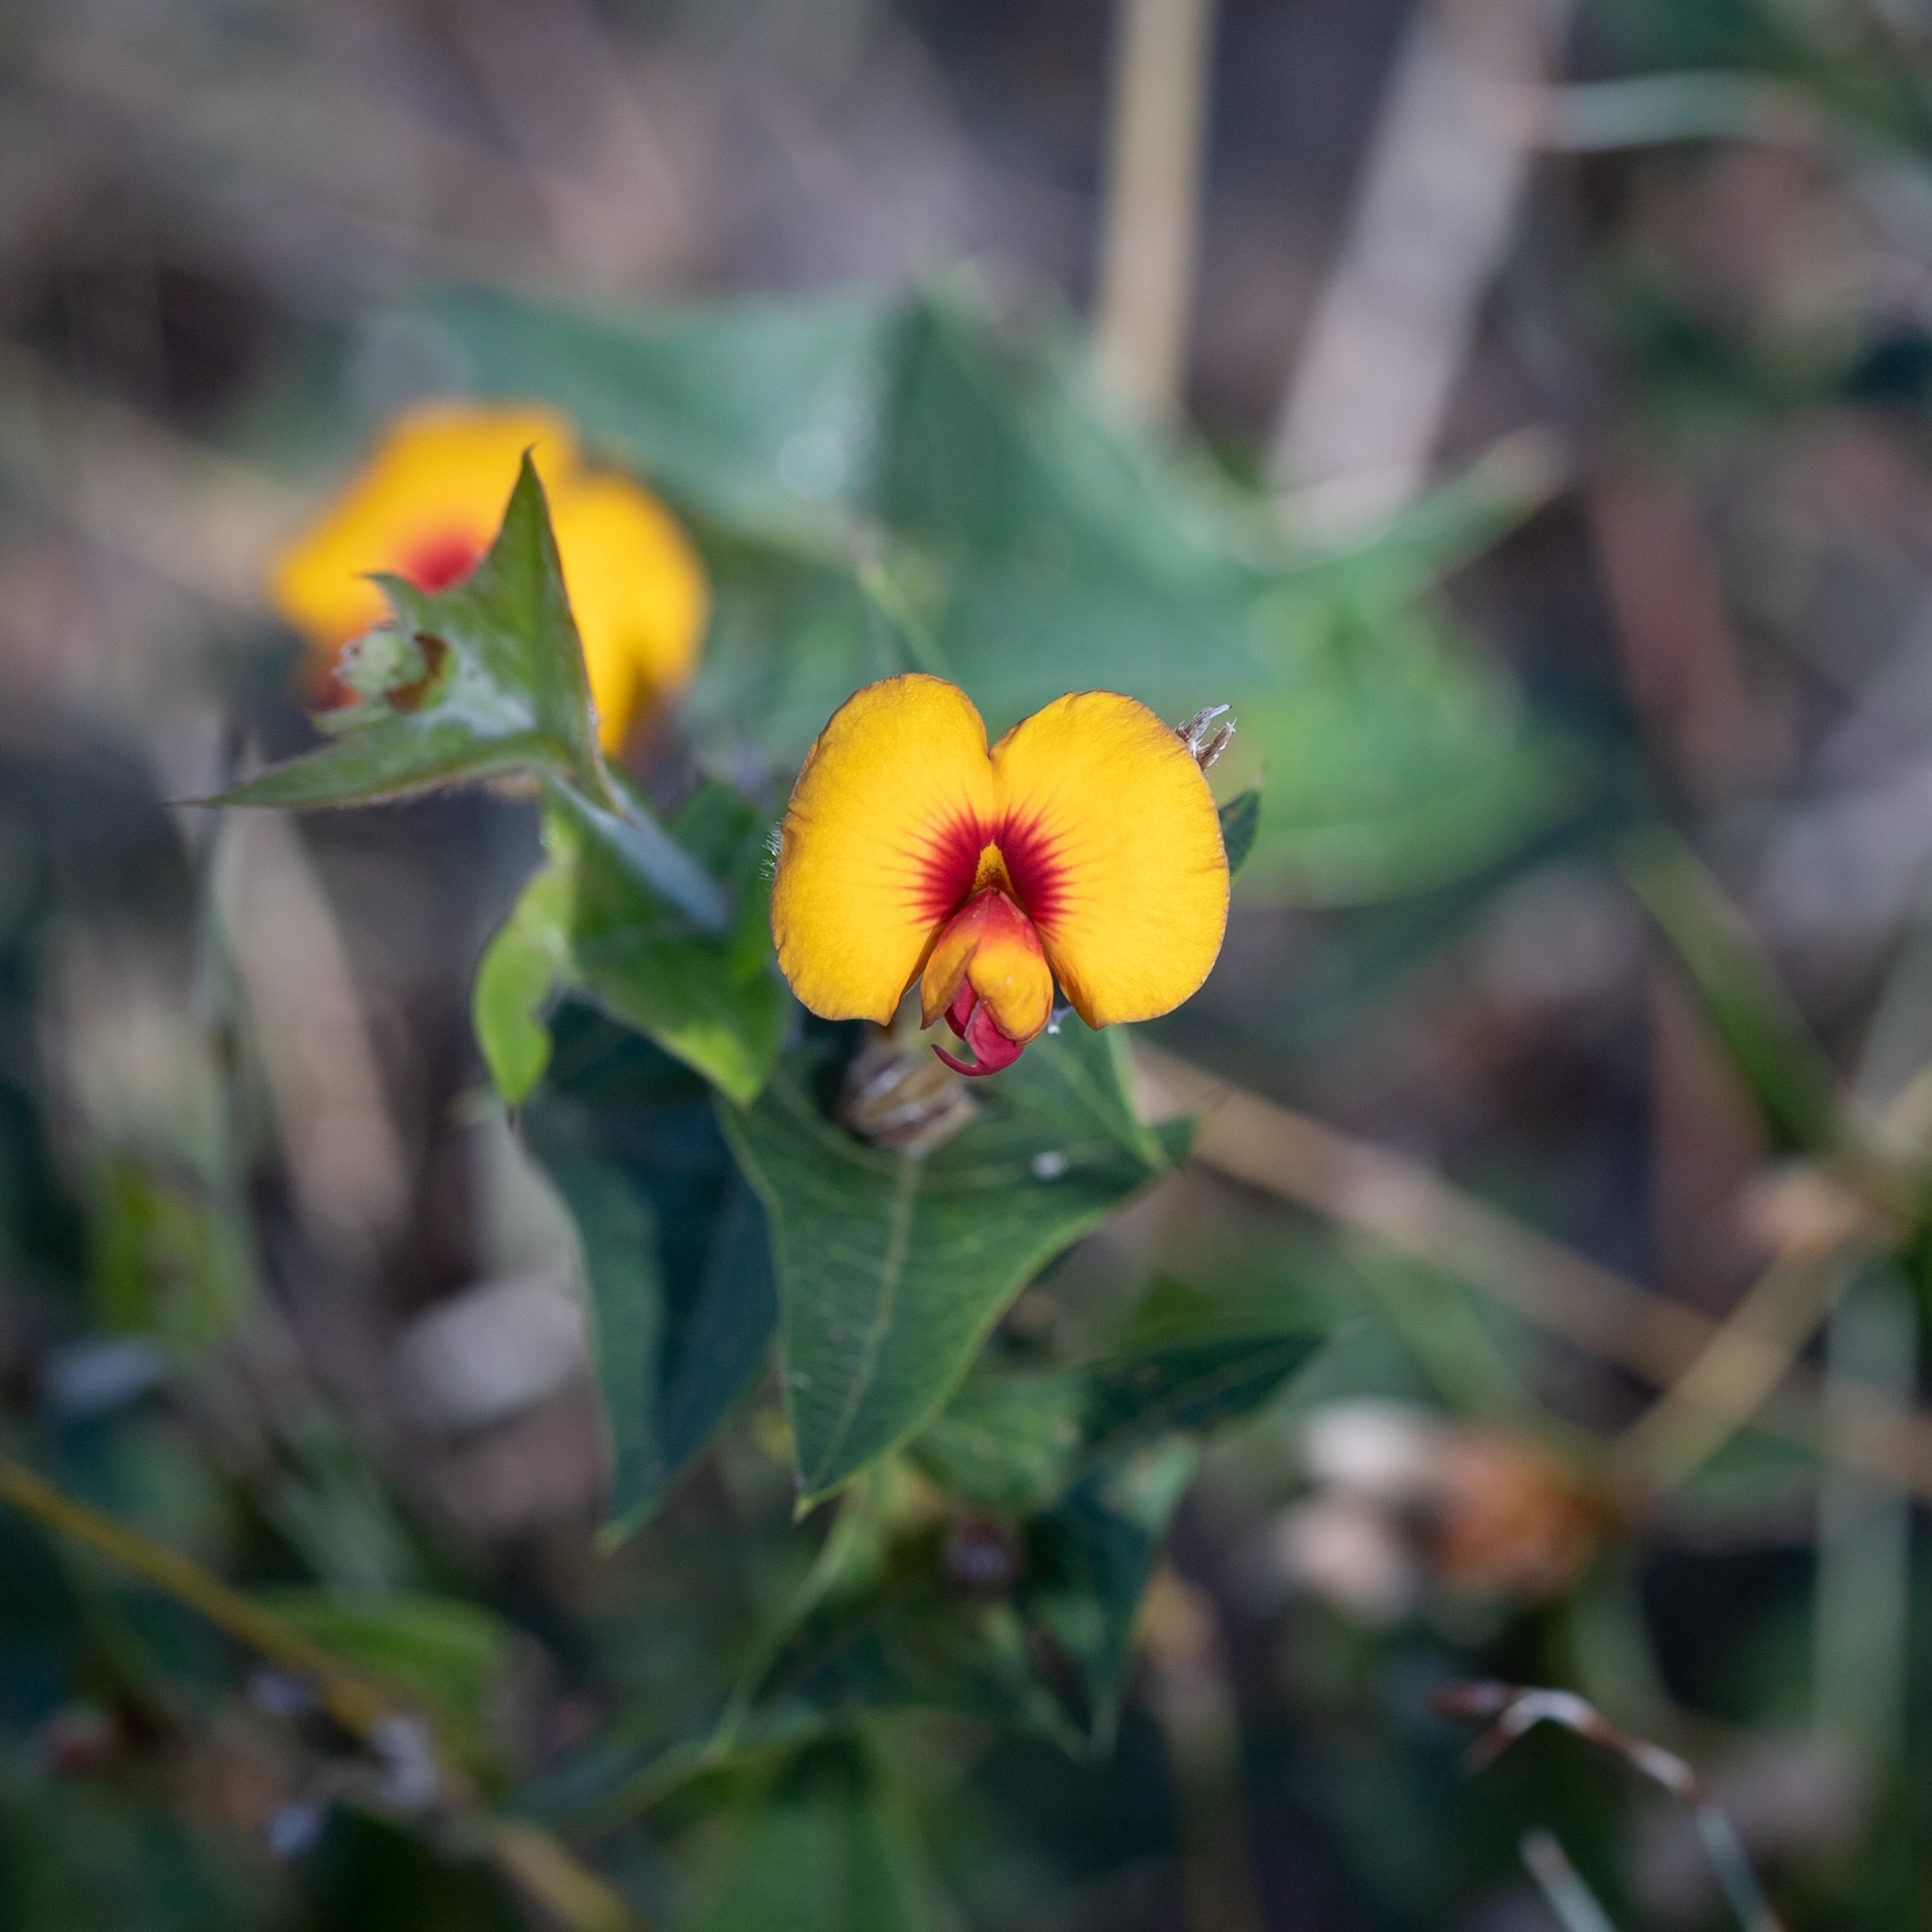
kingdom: Plantae
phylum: Tracheophyta
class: Magnoliopsida
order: Fabales
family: Fabaceae
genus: Platylobium
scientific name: Platylobium obtusangulum
